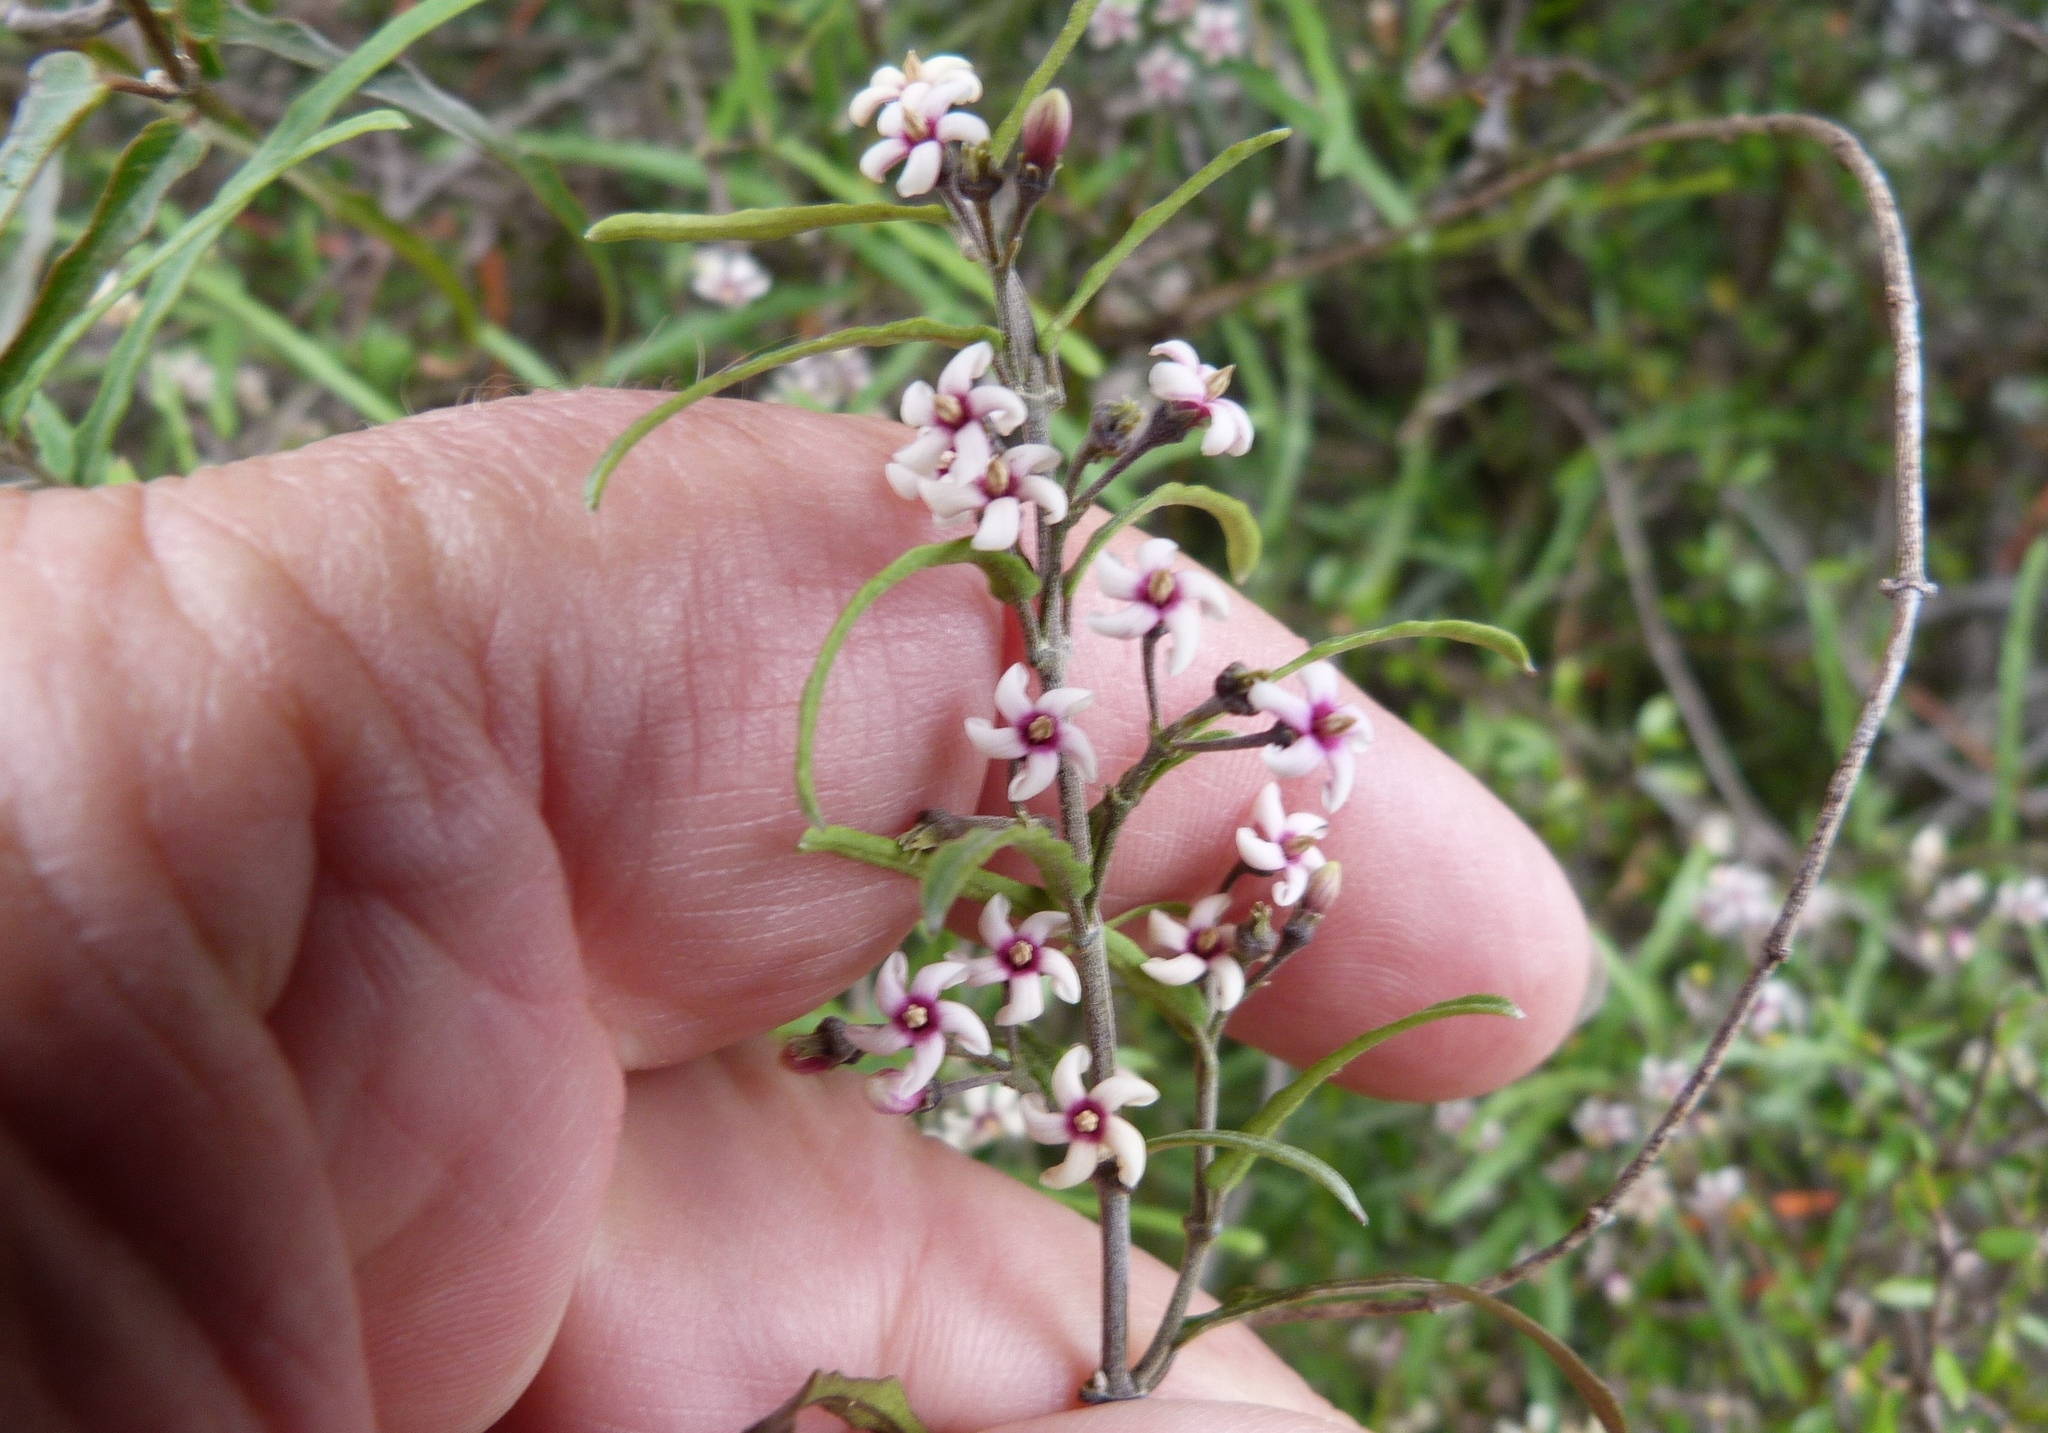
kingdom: Plantae
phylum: Tracheophyta
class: Magnoliopsida
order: Gentianales
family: Apocynaceae
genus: Parsonsia
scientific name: Parsonsia capsularis
